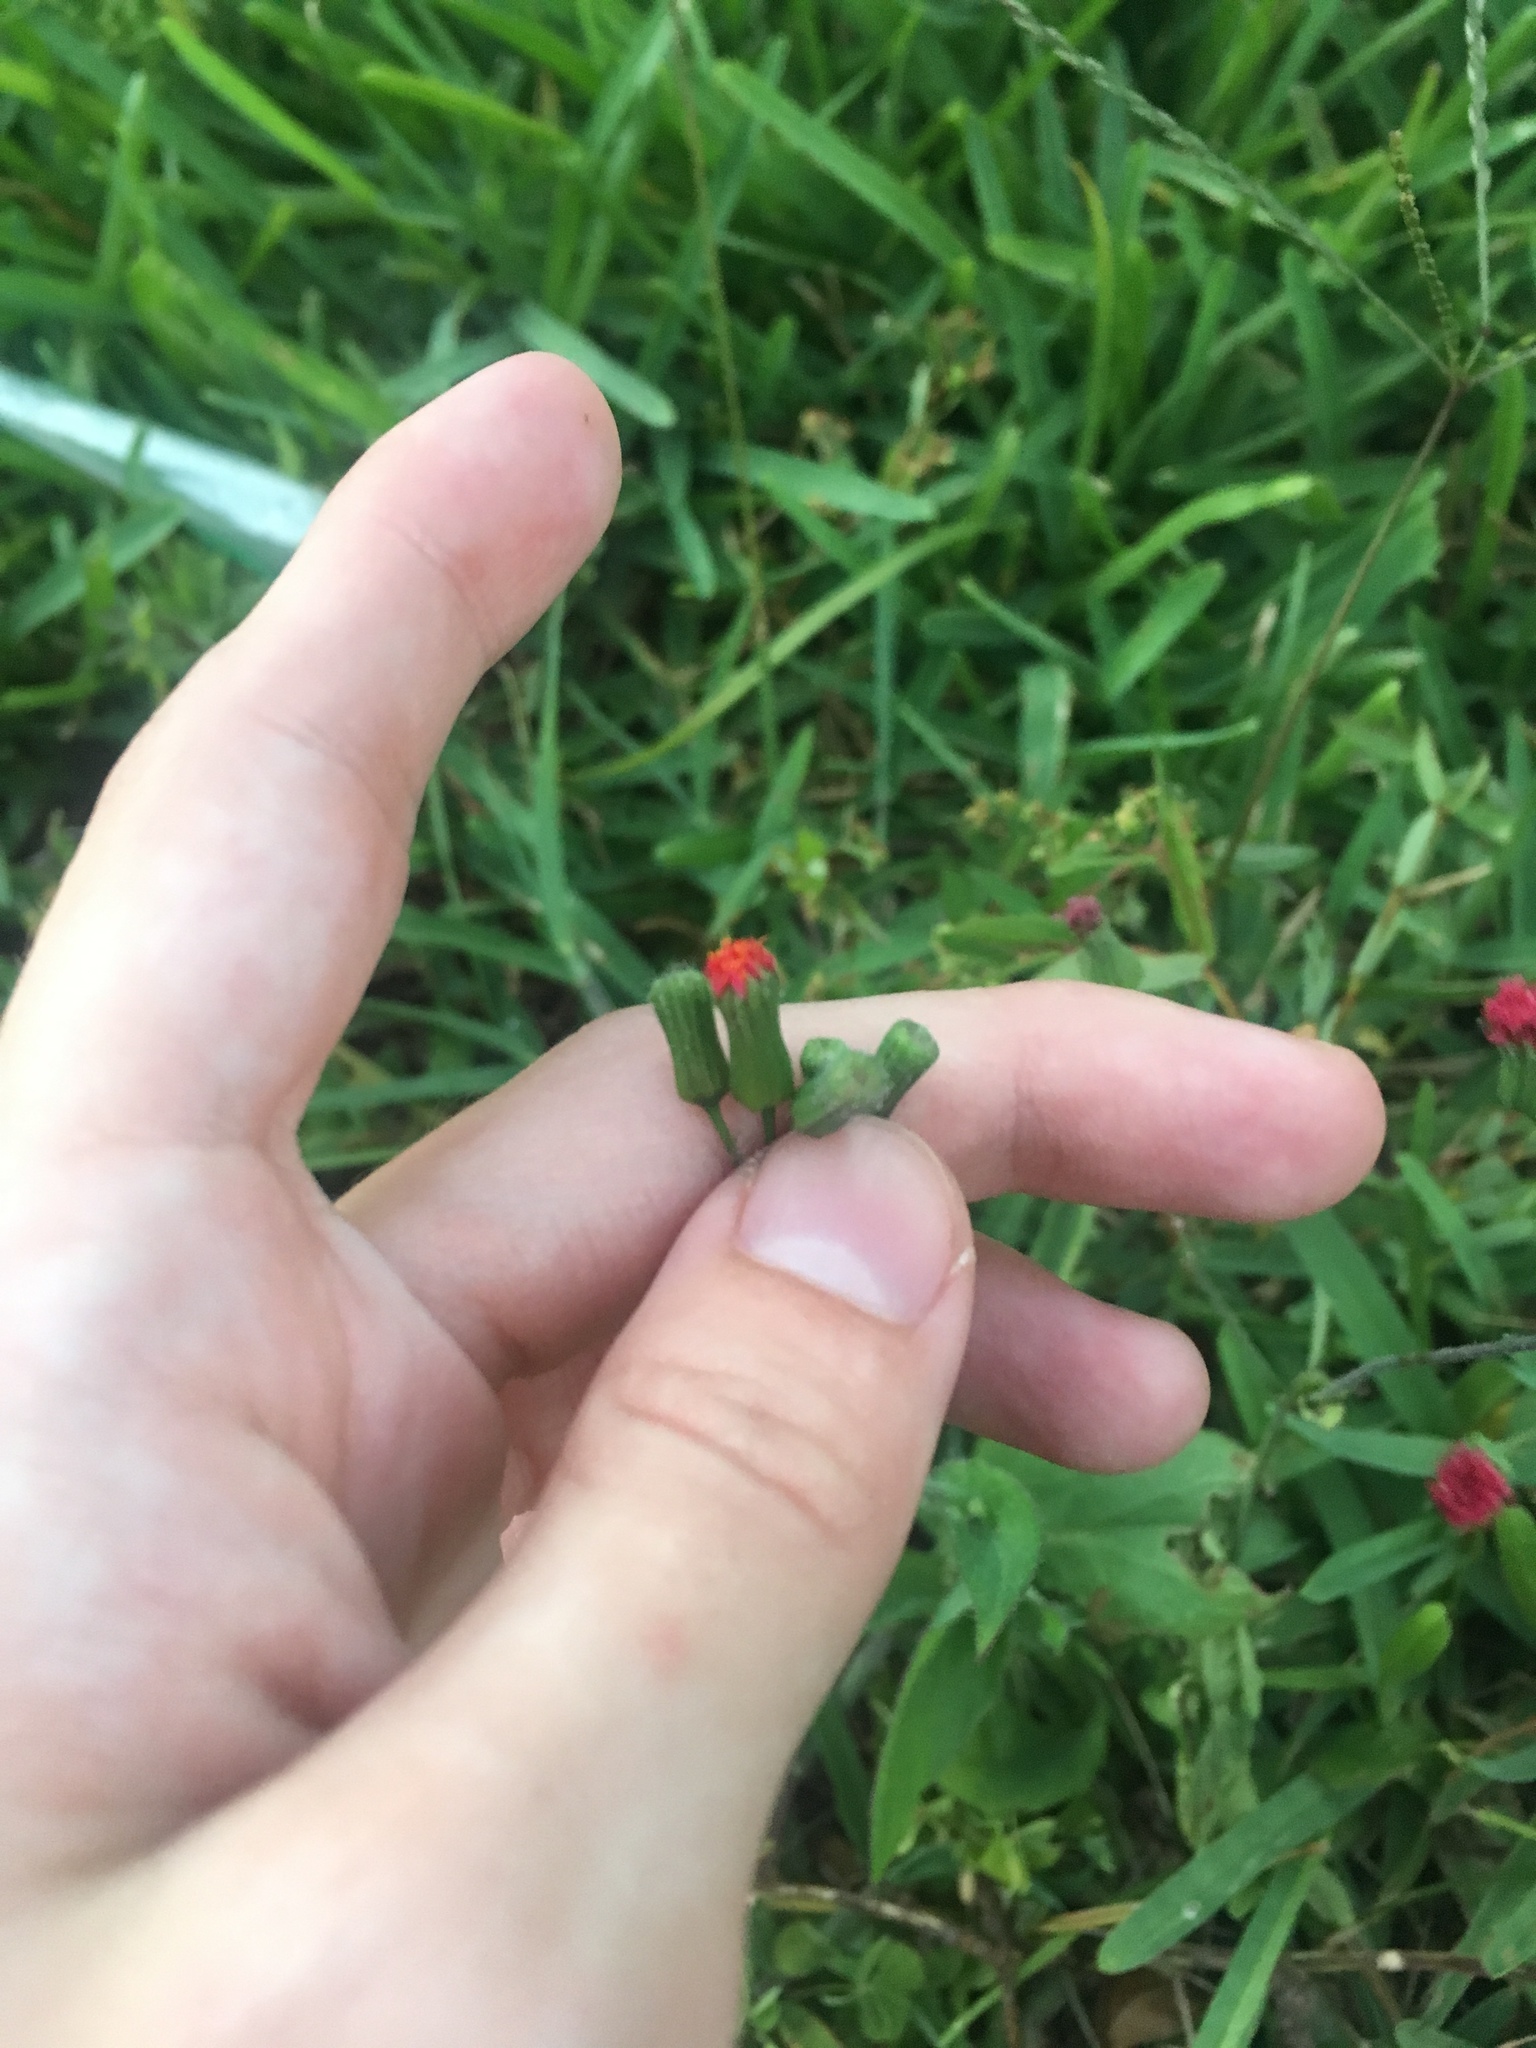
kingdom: Plantae
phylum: Tracheophyta
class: Magnoliopsida
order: Asterales
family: Asteraceae
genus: Emilia
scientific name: Emilia fosbergii
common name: Florida tasselflower
